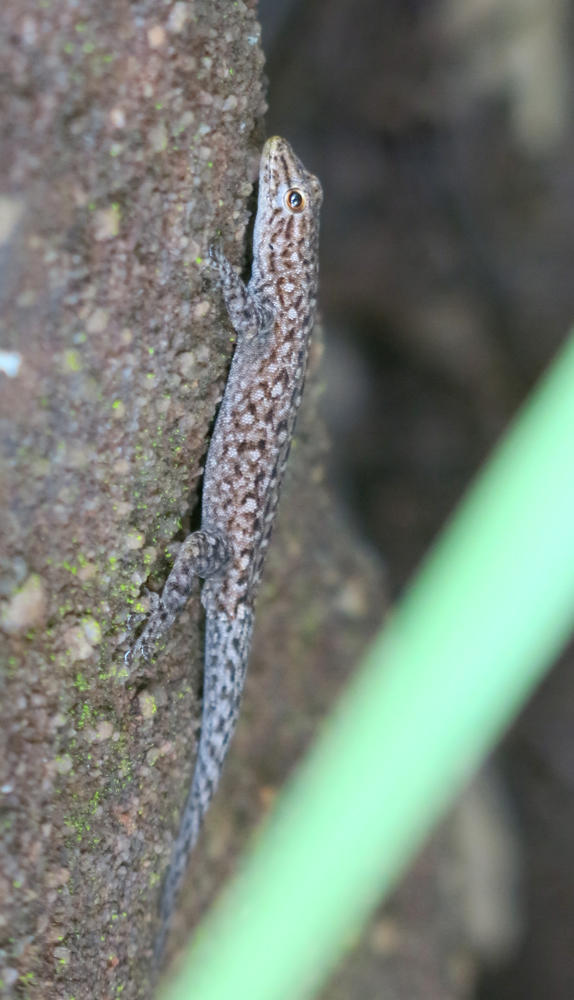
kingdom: Animalia
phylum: Chordata
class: Squamata
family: Gekkonidae
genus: Lygodactylus
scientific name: Lygodactylus soutpansbergensis
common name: Soutpansberg dwarf gecko
